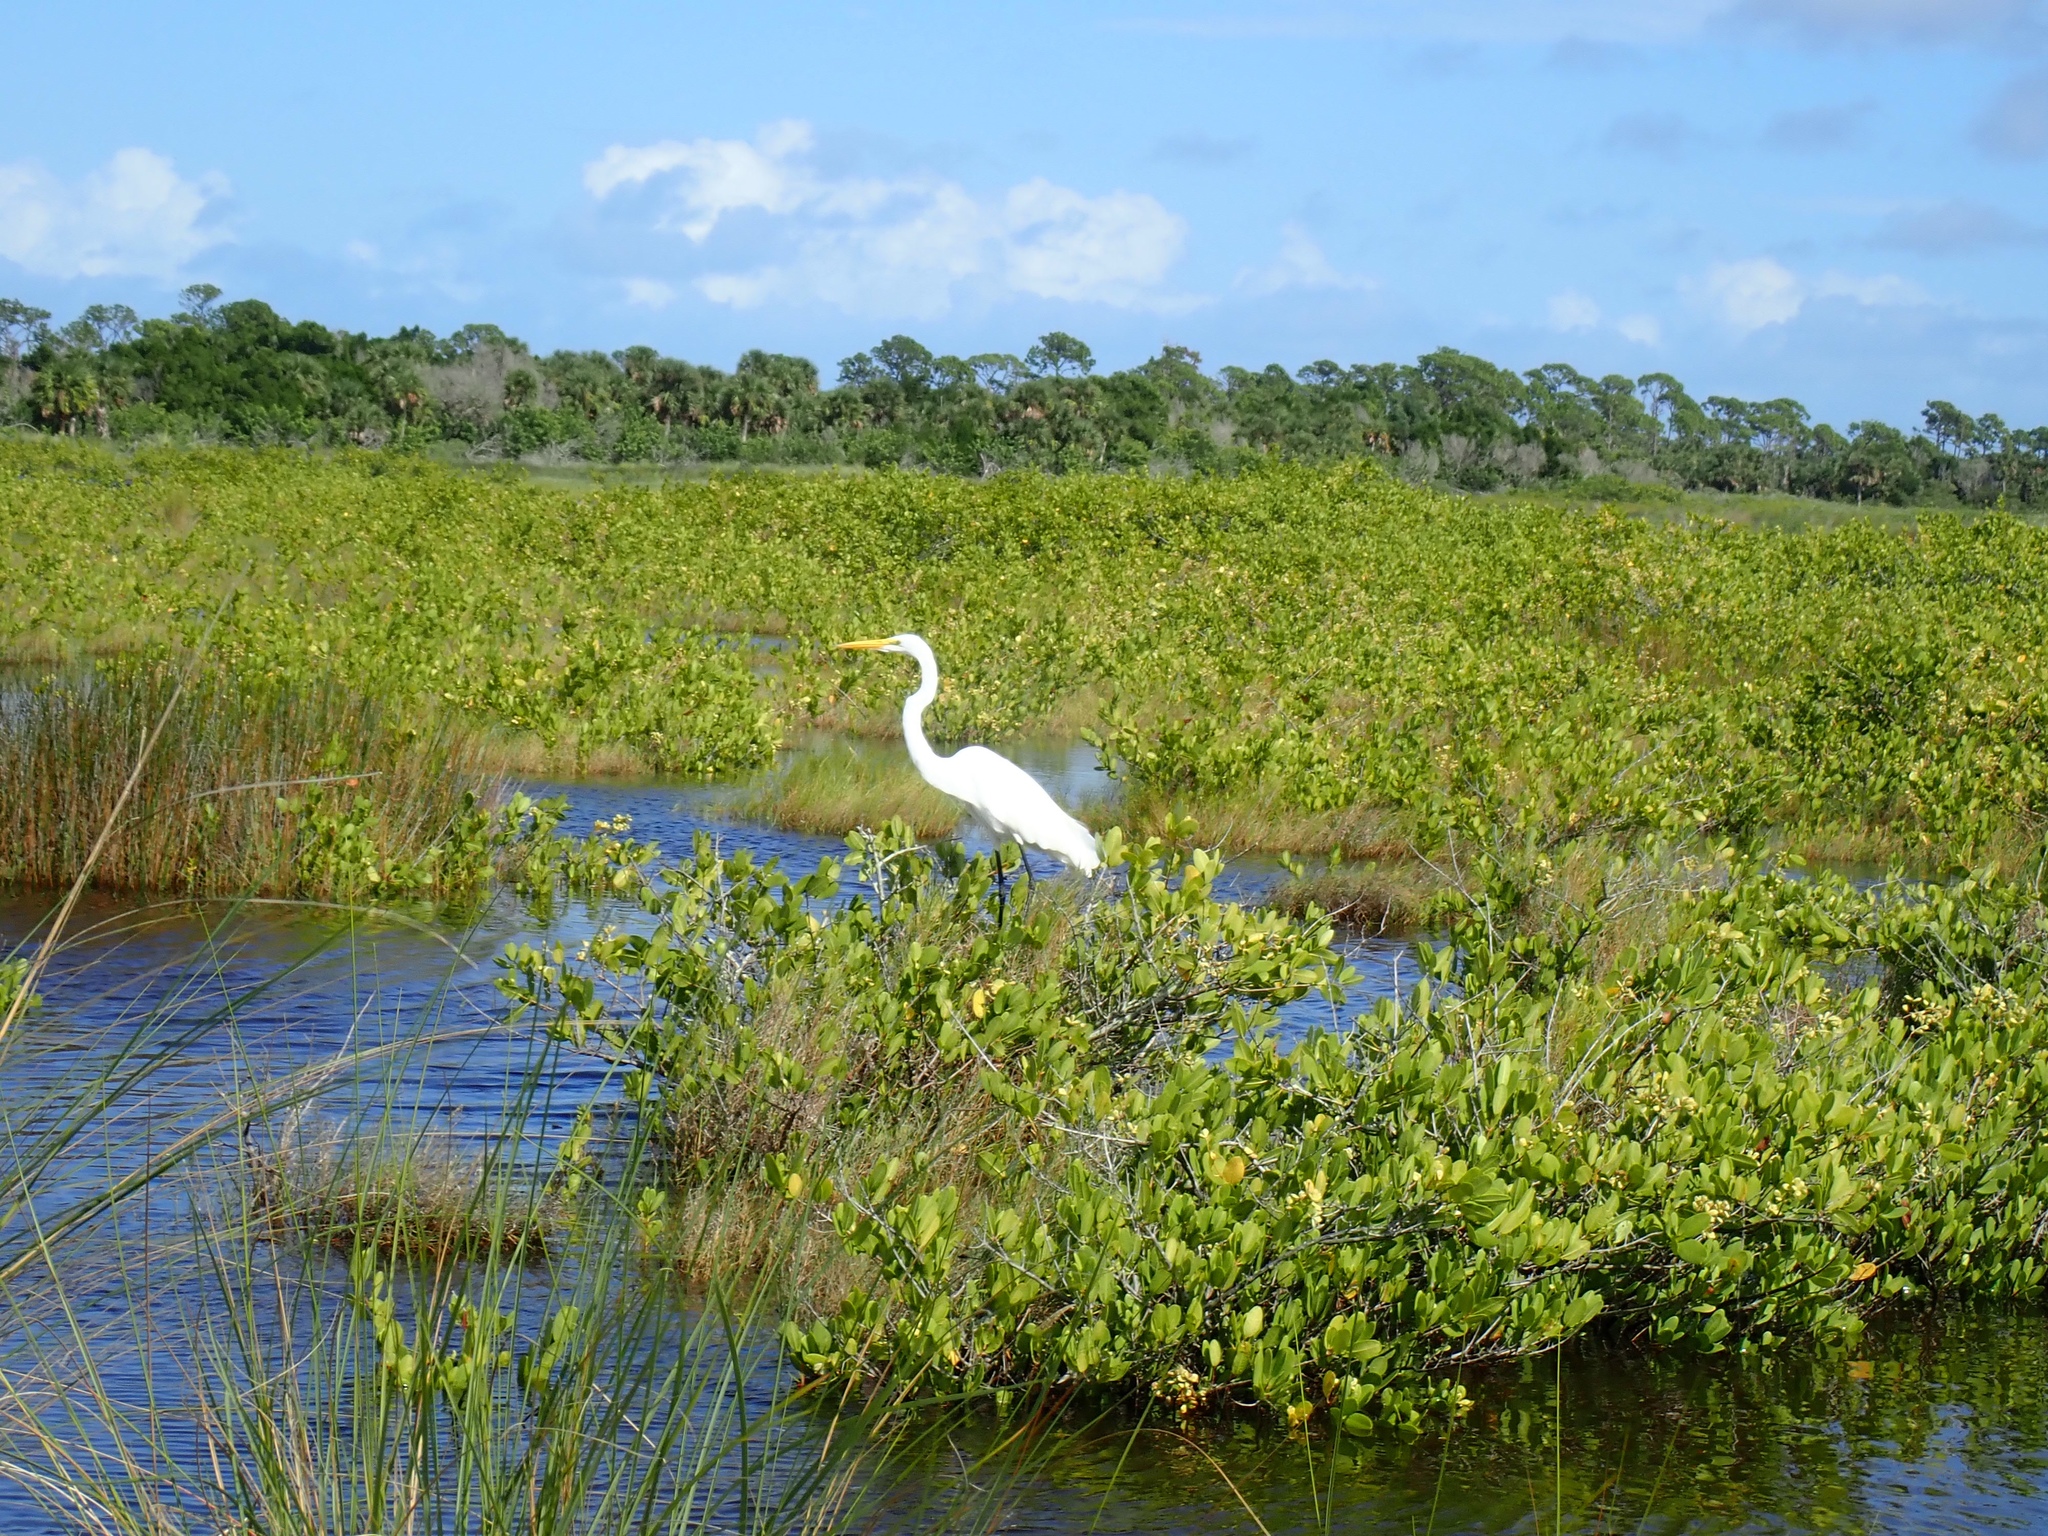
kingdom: Animalia
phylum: Chordata
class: Aves
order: Pelecaniformes
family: Ardeidae
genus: Ardea
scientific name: Ardea alba
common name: Great egret
